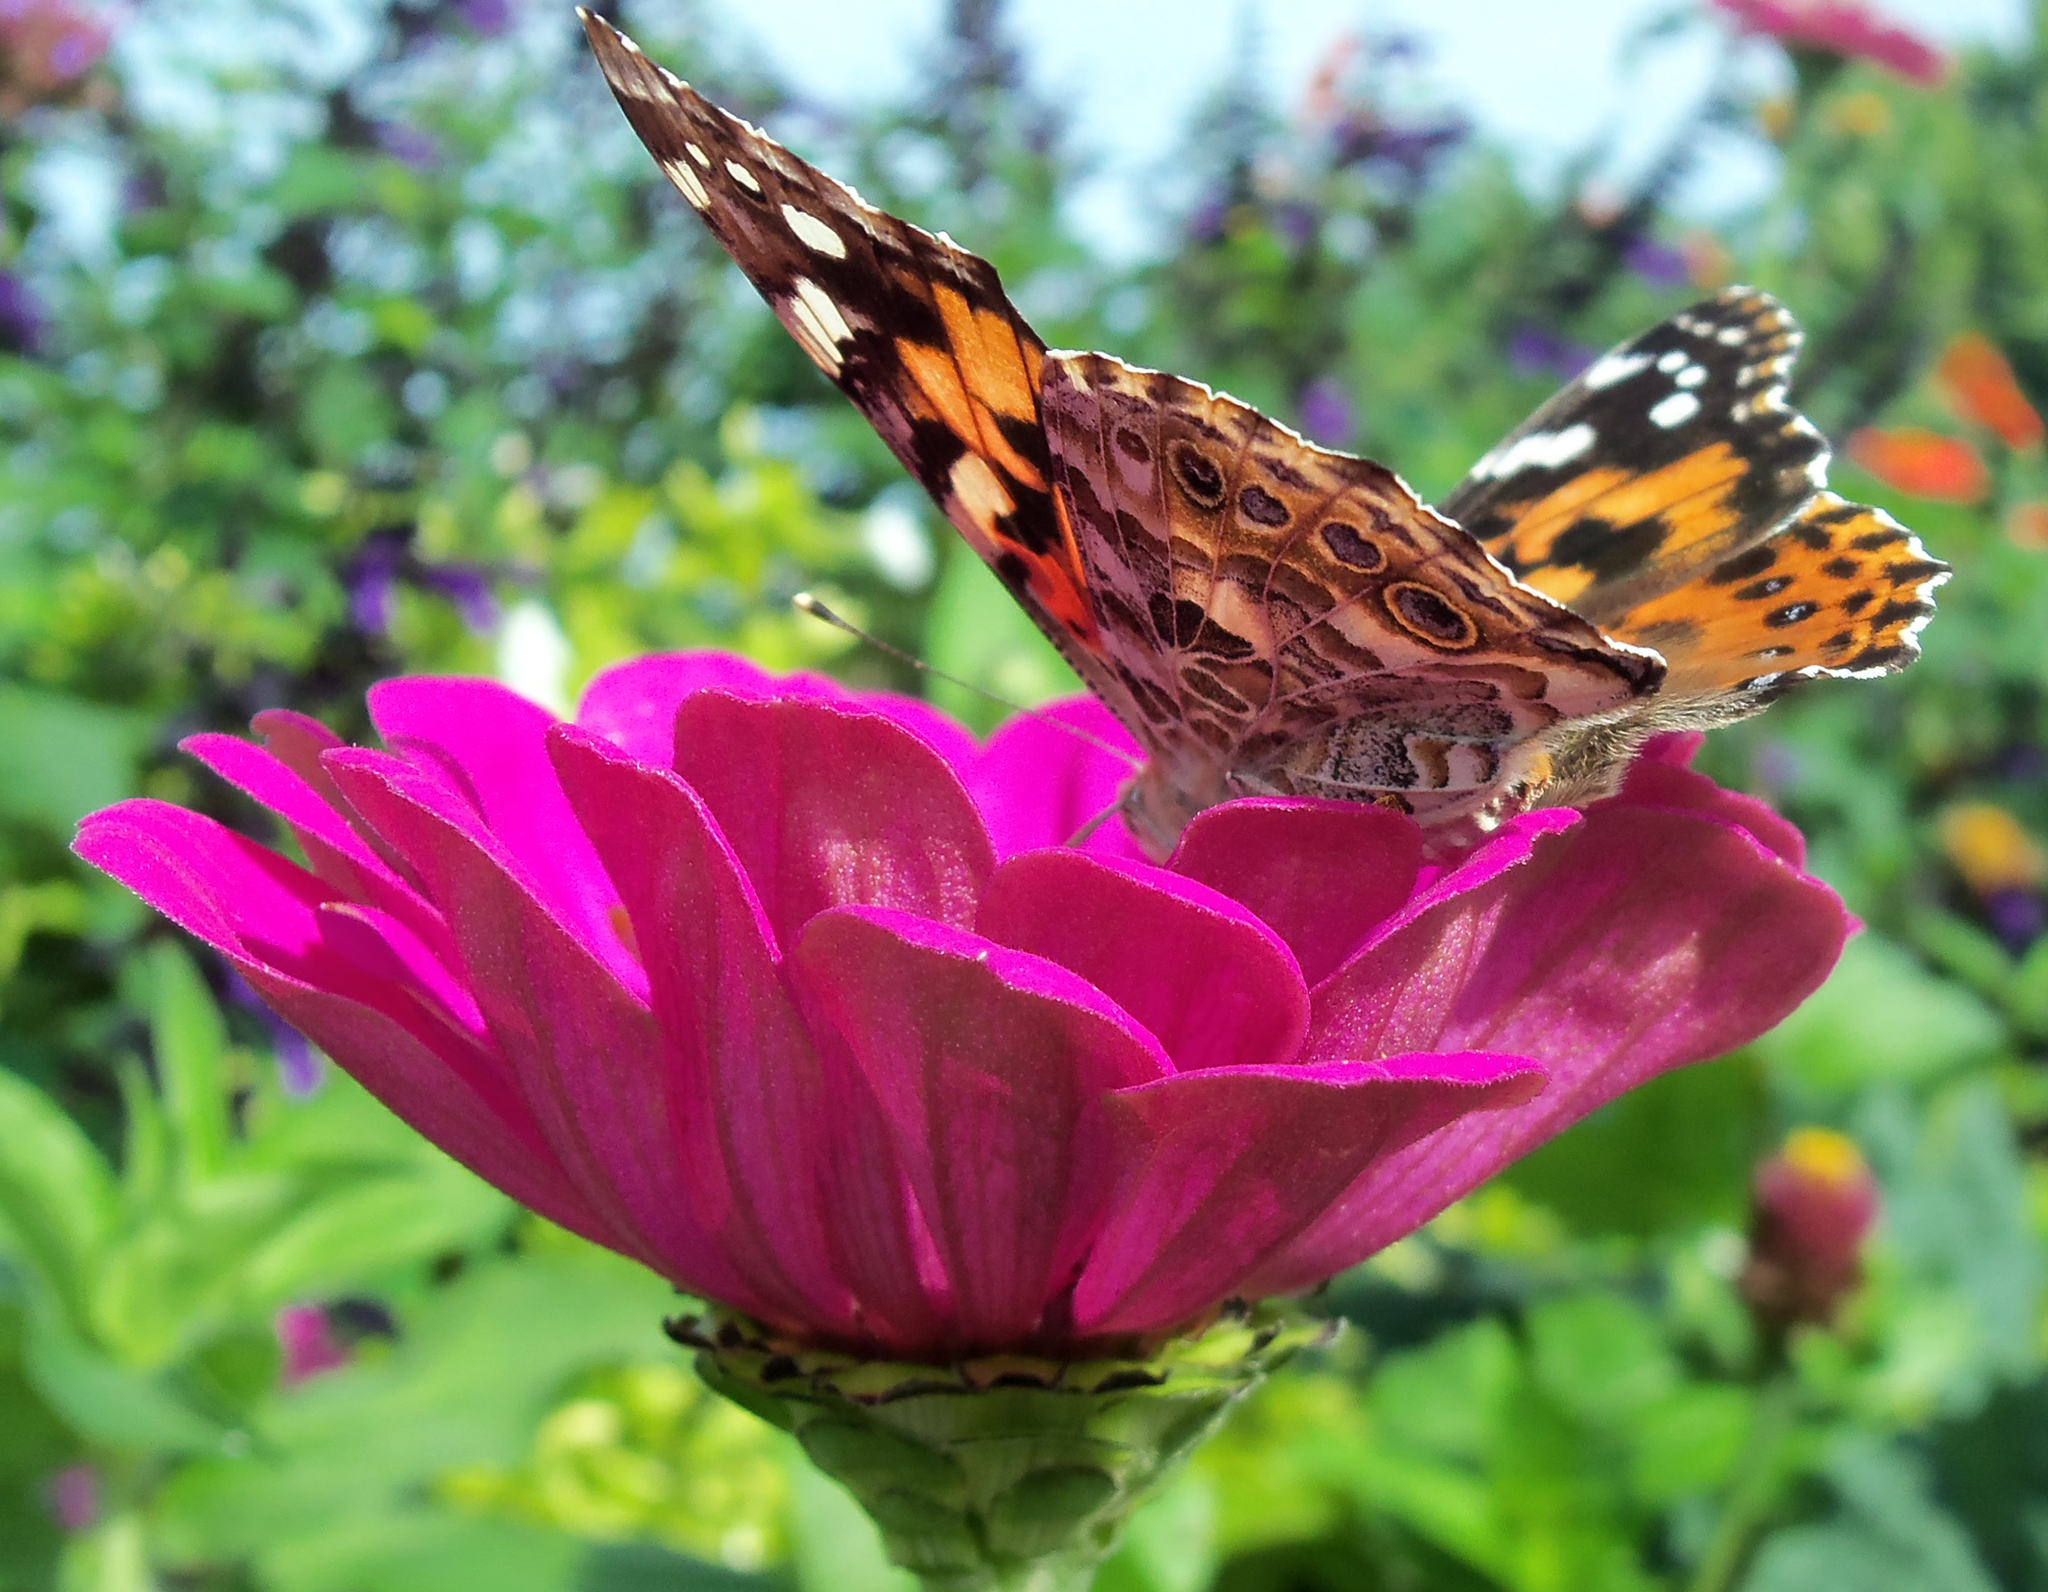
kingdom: Animalia
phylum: Arthropoda
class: Insecta
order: Lepidoptera
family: Nymphalidae
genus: Vanessa
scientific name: Vanessa cardui
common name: Painted lady
